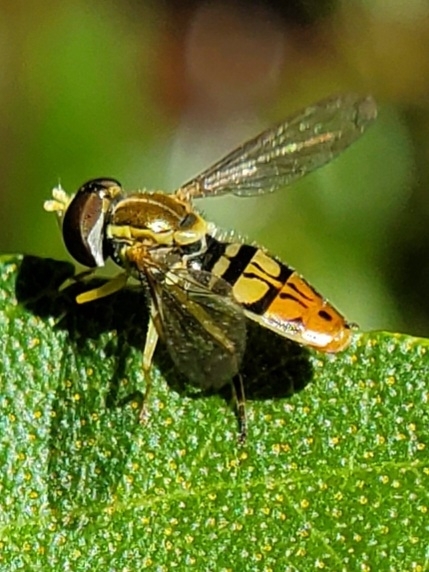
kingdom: Animalia
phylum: Arthropoda
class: Insecta
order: Diptera
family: Syrphidae
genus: Toxomerus
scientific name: Toxomerus marginatus
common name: Syrphid fly
